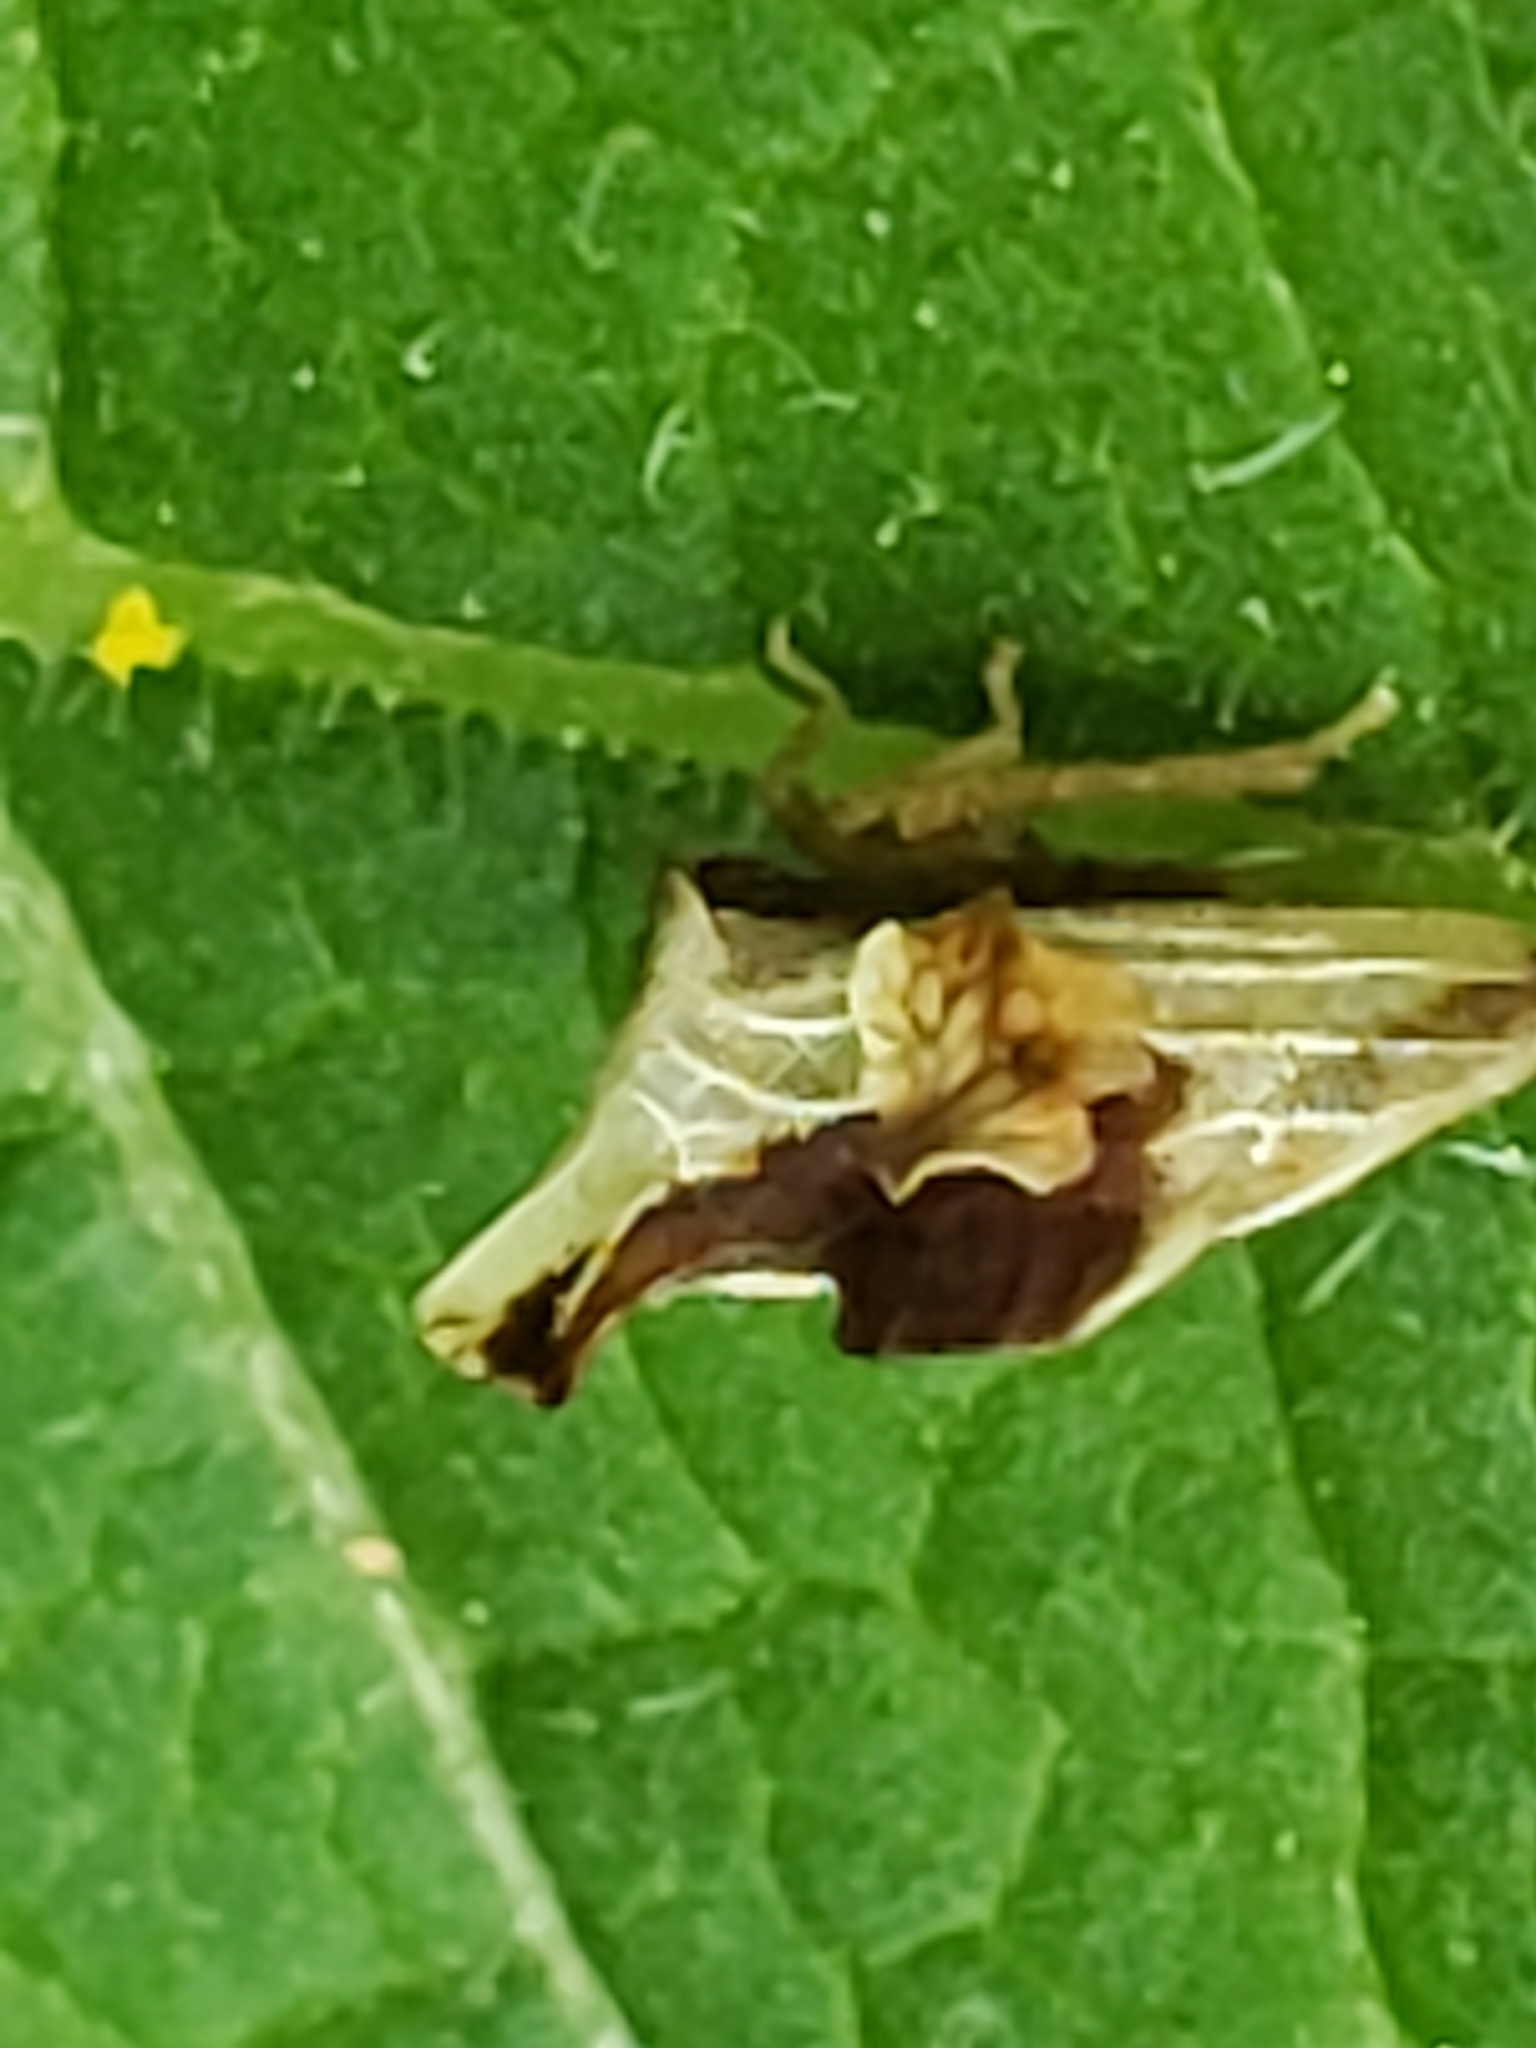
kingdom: Animalia
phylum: Arthropoda
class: Insecta
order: Hemiptera
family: Membracidae
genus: Entylia
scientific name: Entylia carinata
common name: Keeled treehopper
